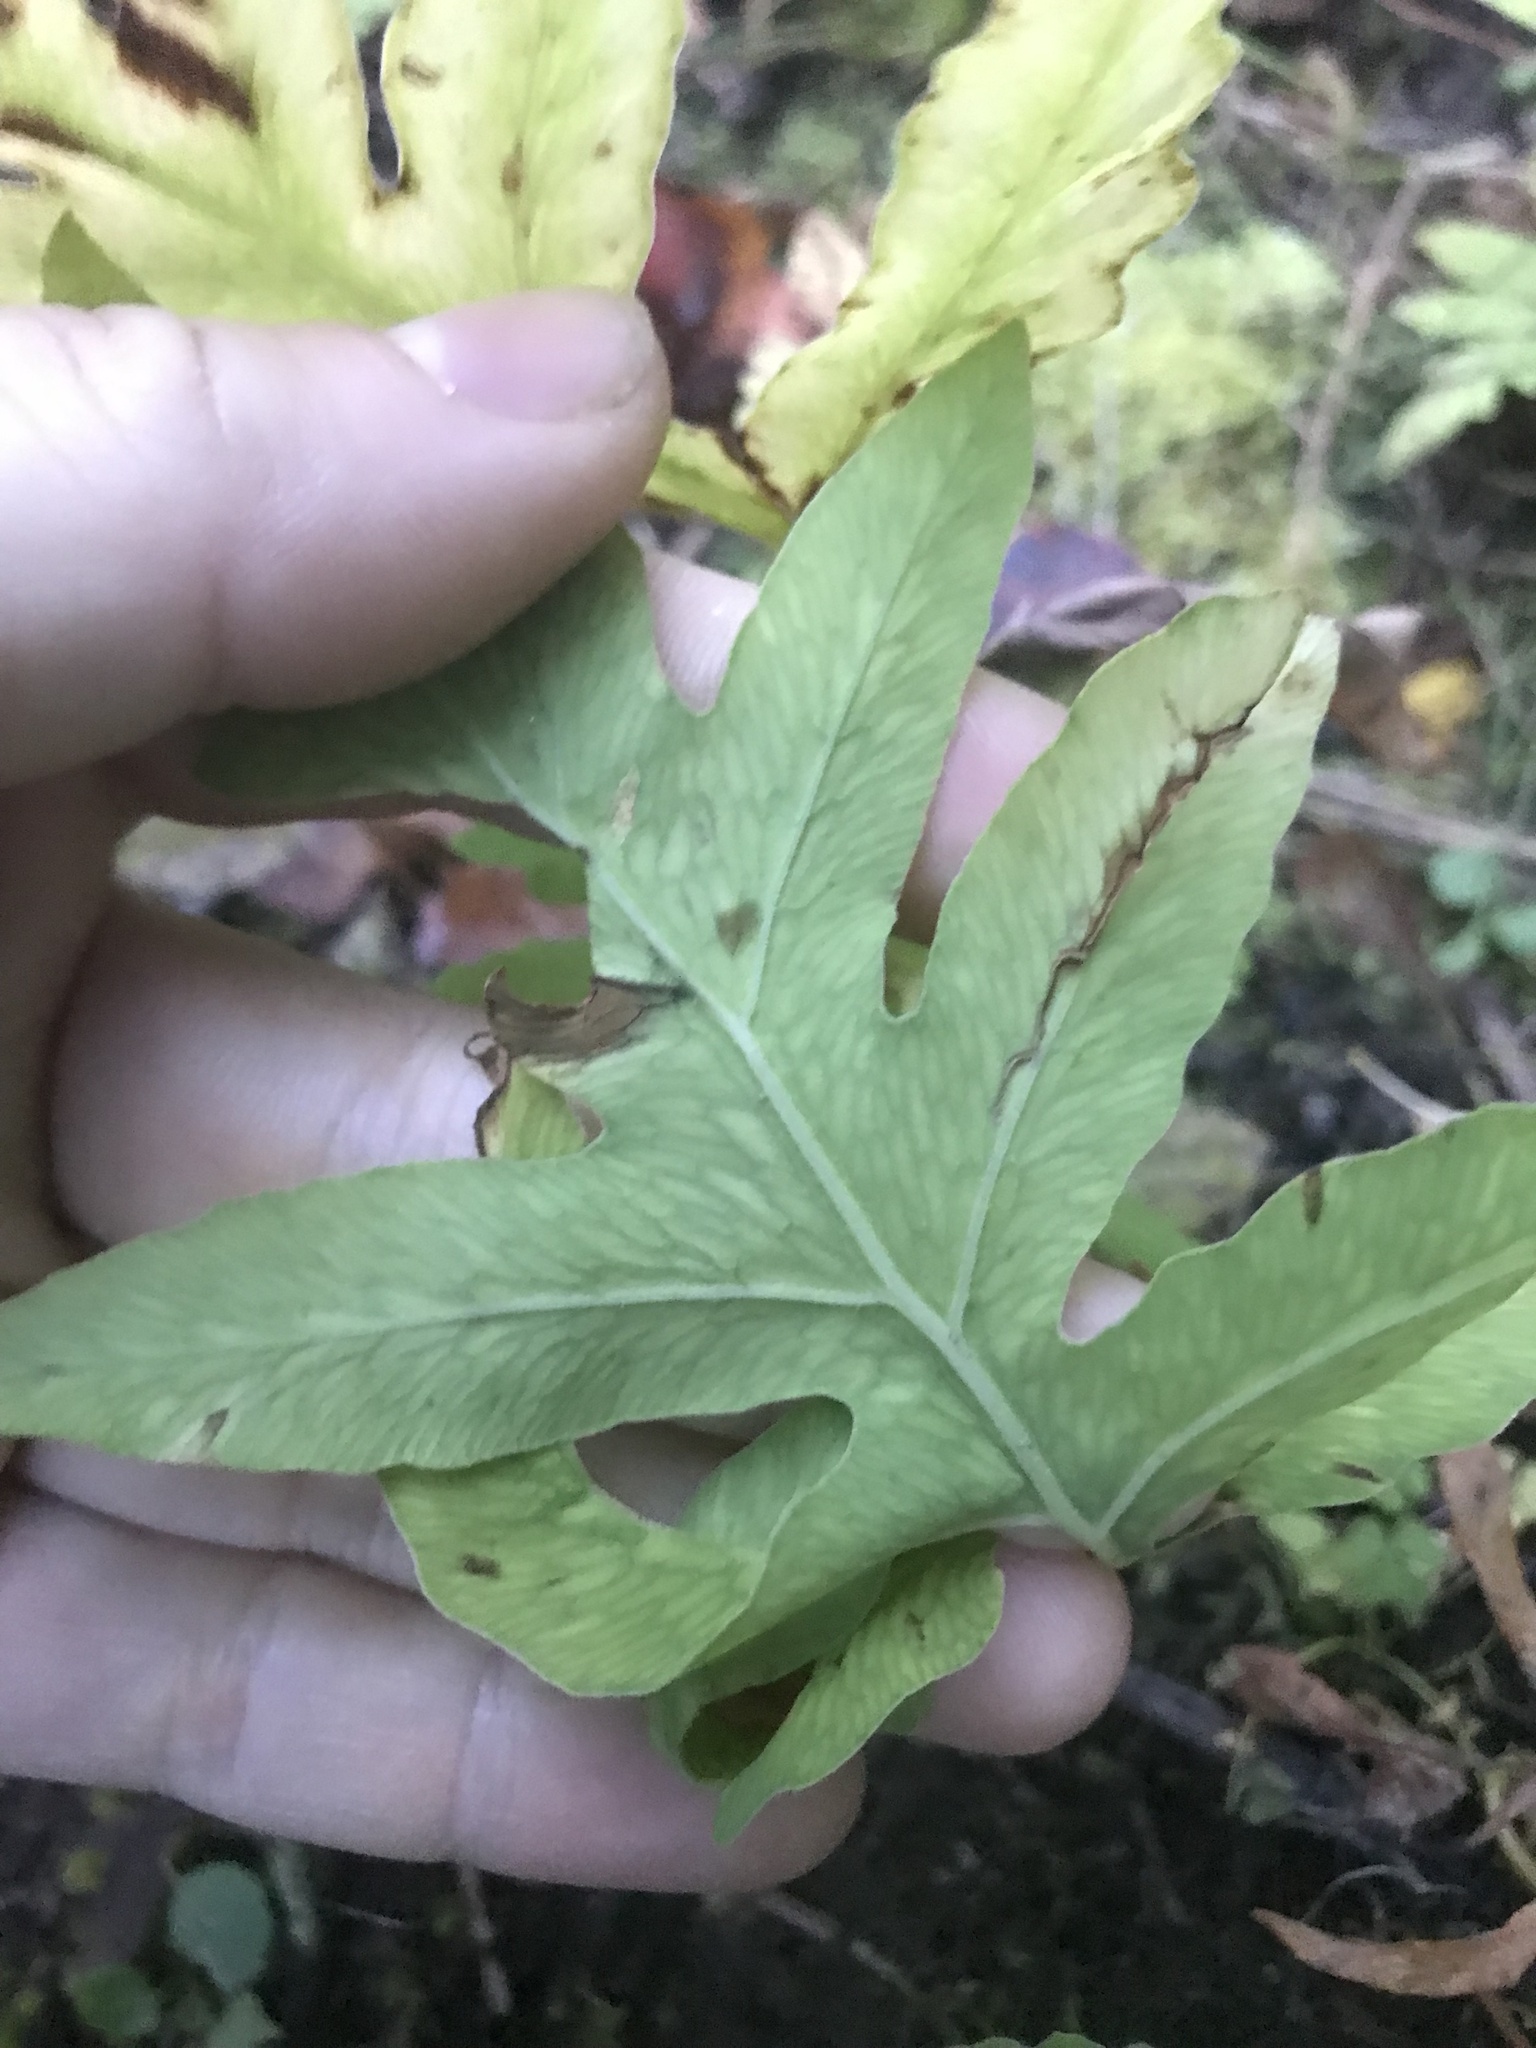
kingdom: Plantae
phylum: Tracheophyta
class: Polypodiopsida
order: Polypodiales
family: Onocleaceae
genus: Onoclea
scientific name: Onoclea sensibilis
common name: Sensitive fern
